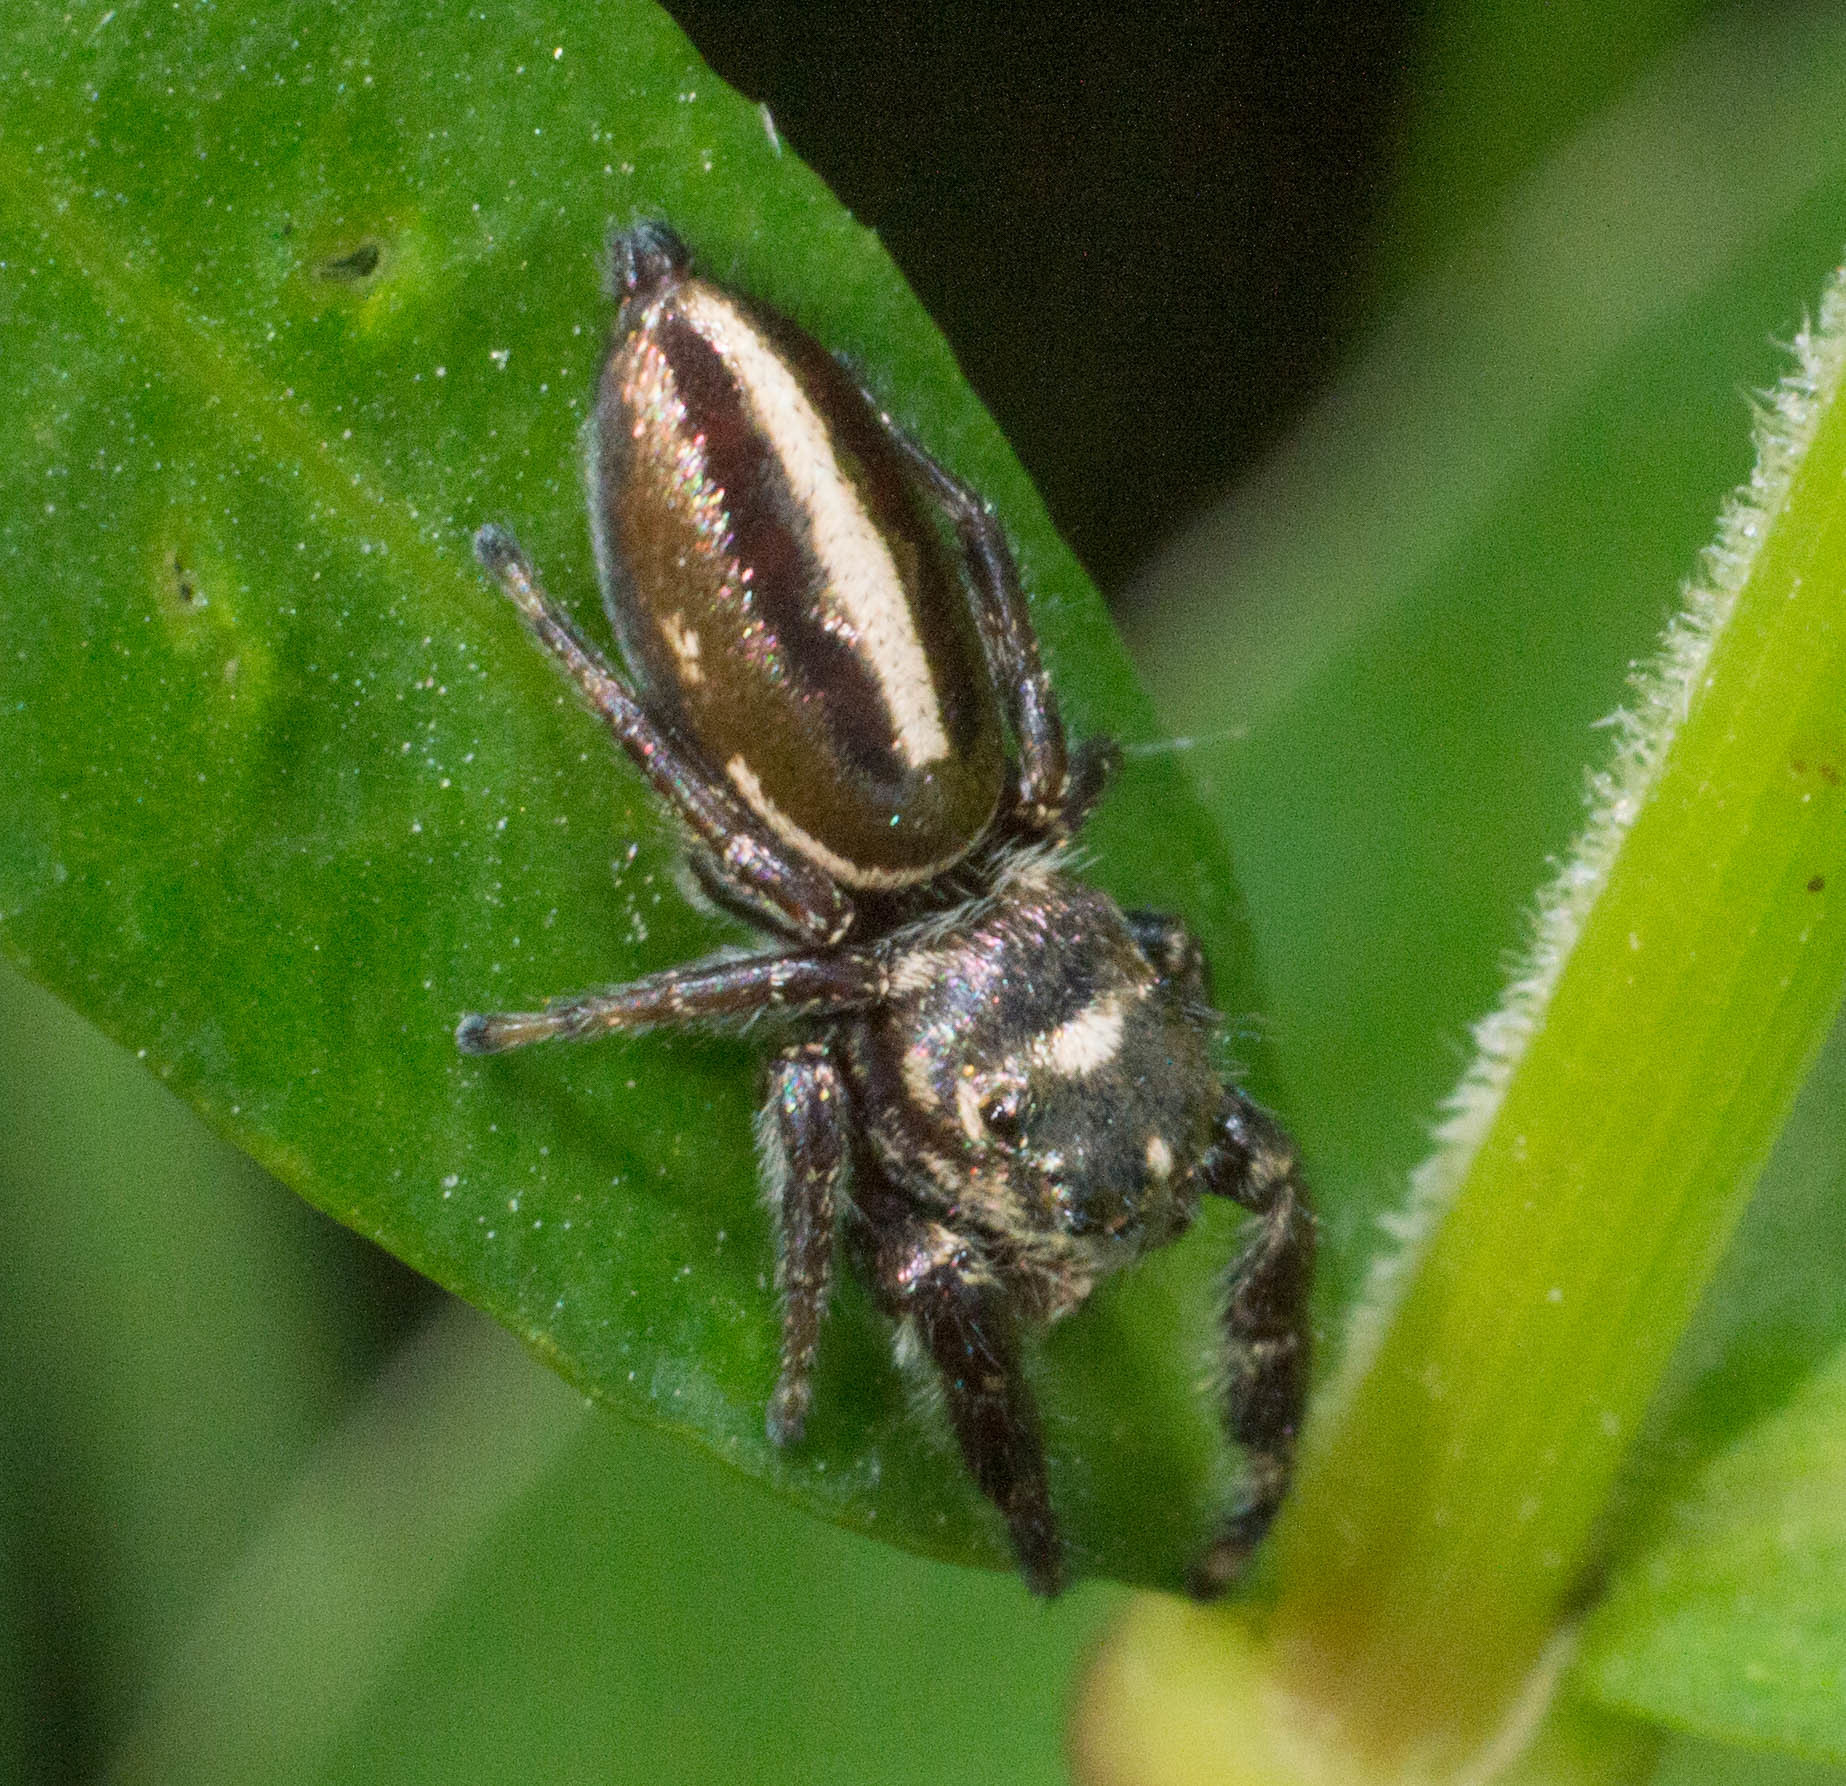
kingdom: Animalia
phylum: Arthropoda
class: Arachnida
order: Araneae
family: Salticidae
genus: Dendryphantes
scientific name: Dendryphantes mordax
